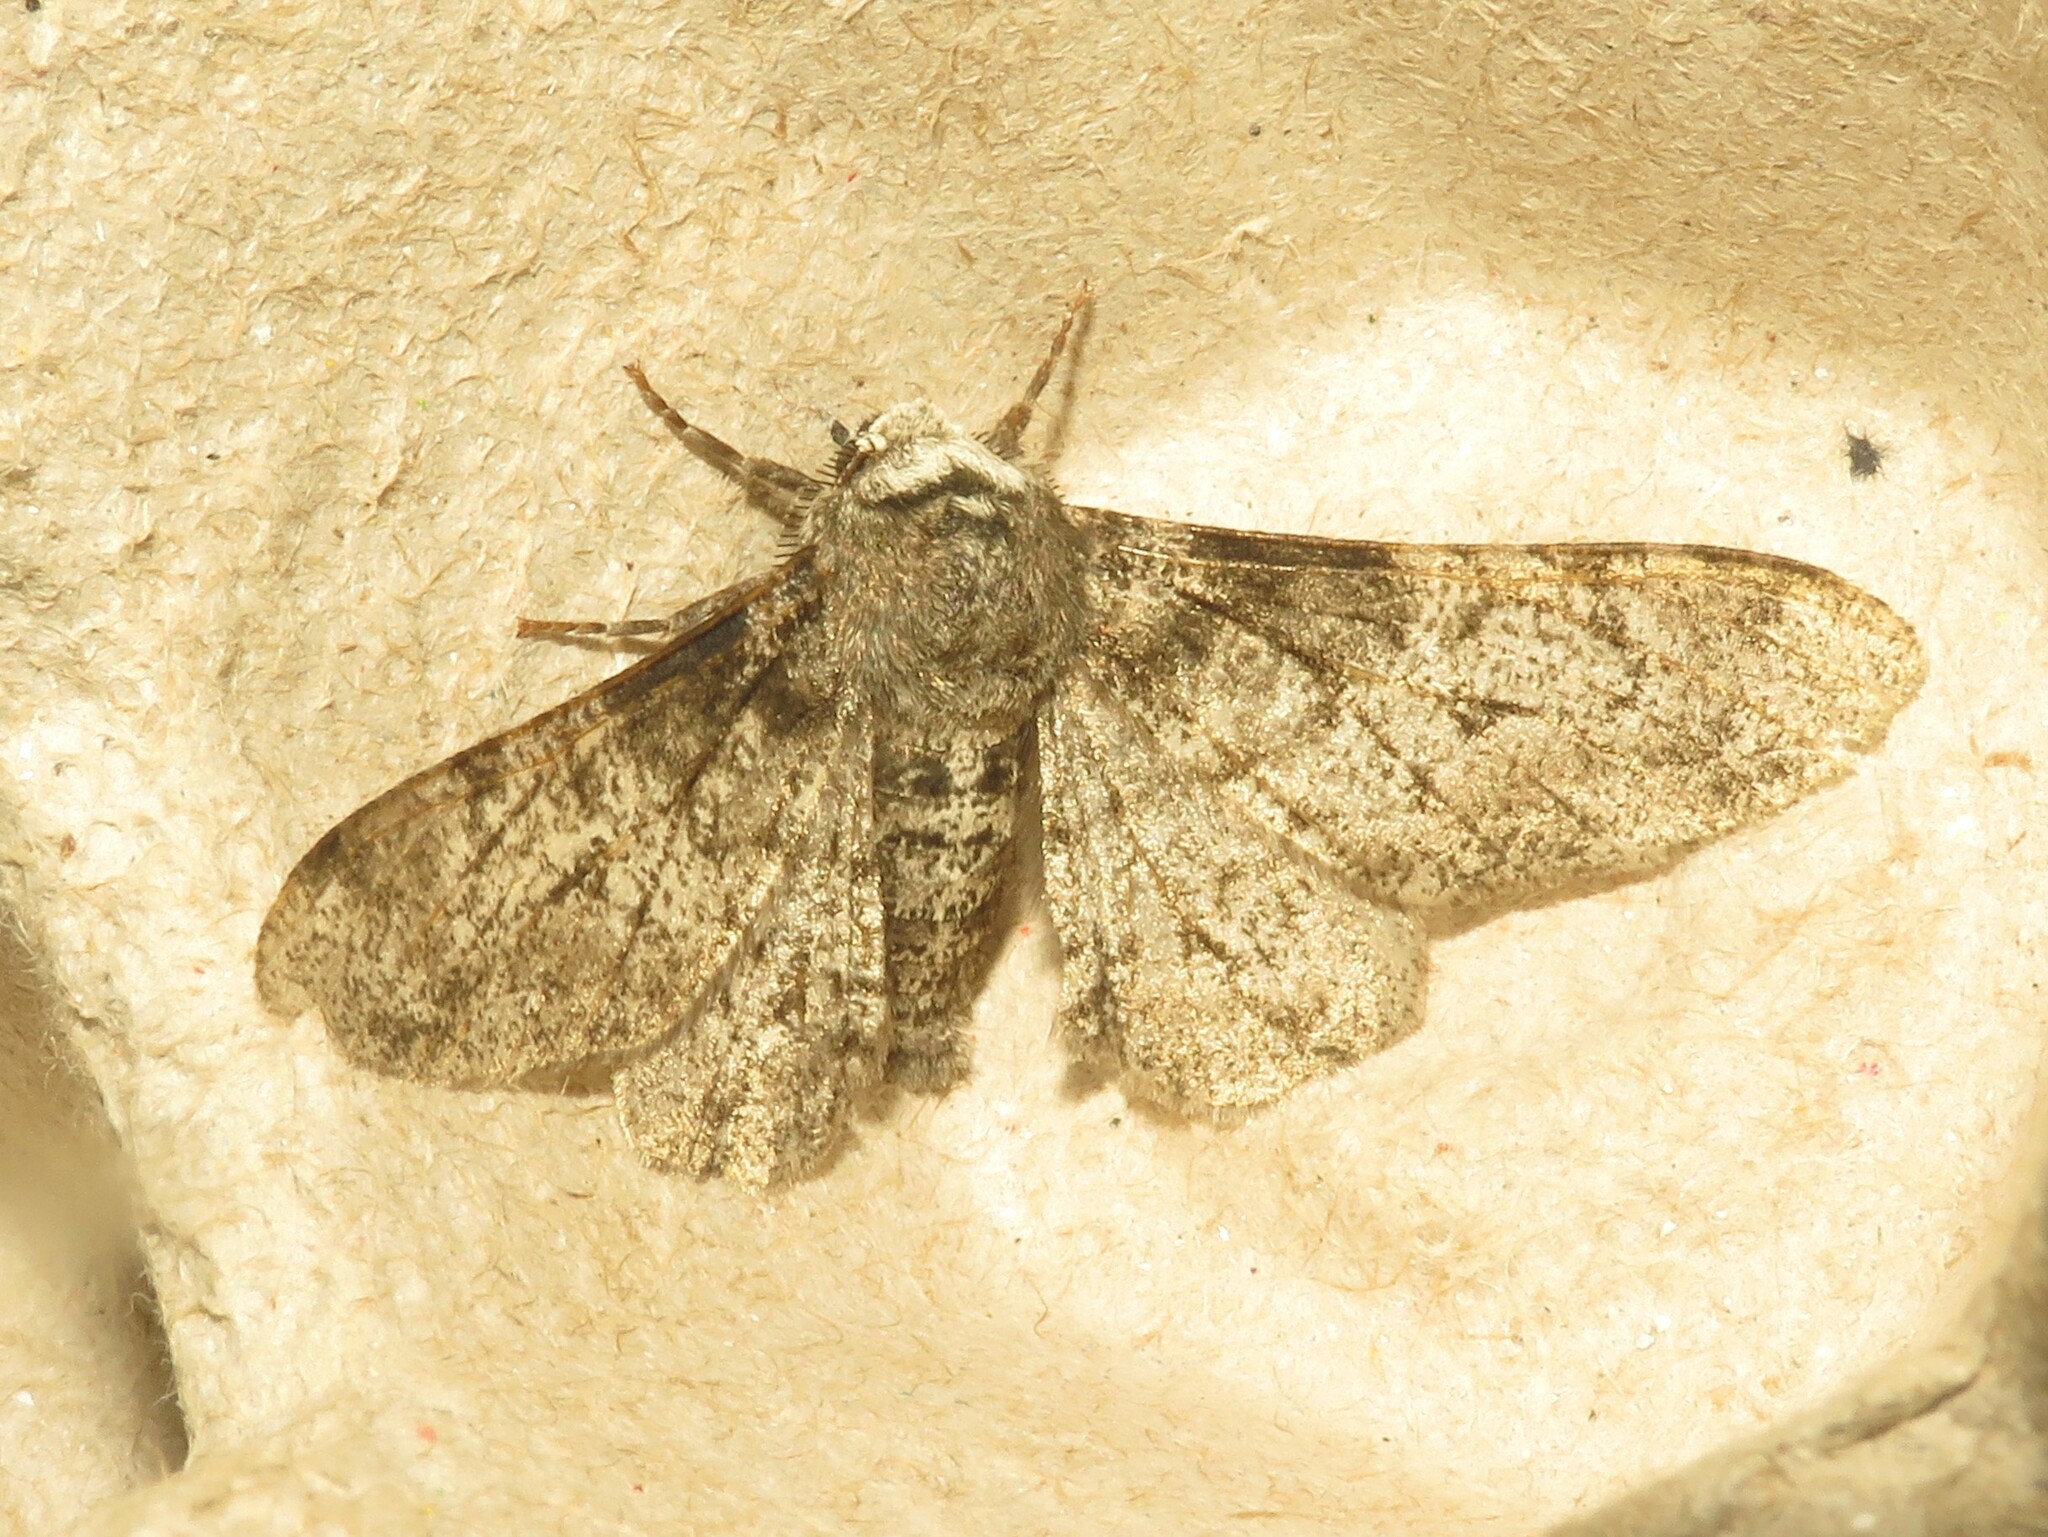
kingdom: Animalia
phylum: Arthropoda
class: Insecta
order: Lepidoptera
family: Geometridae
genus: Biston
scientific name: Biston betularia
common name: Peppered moth
